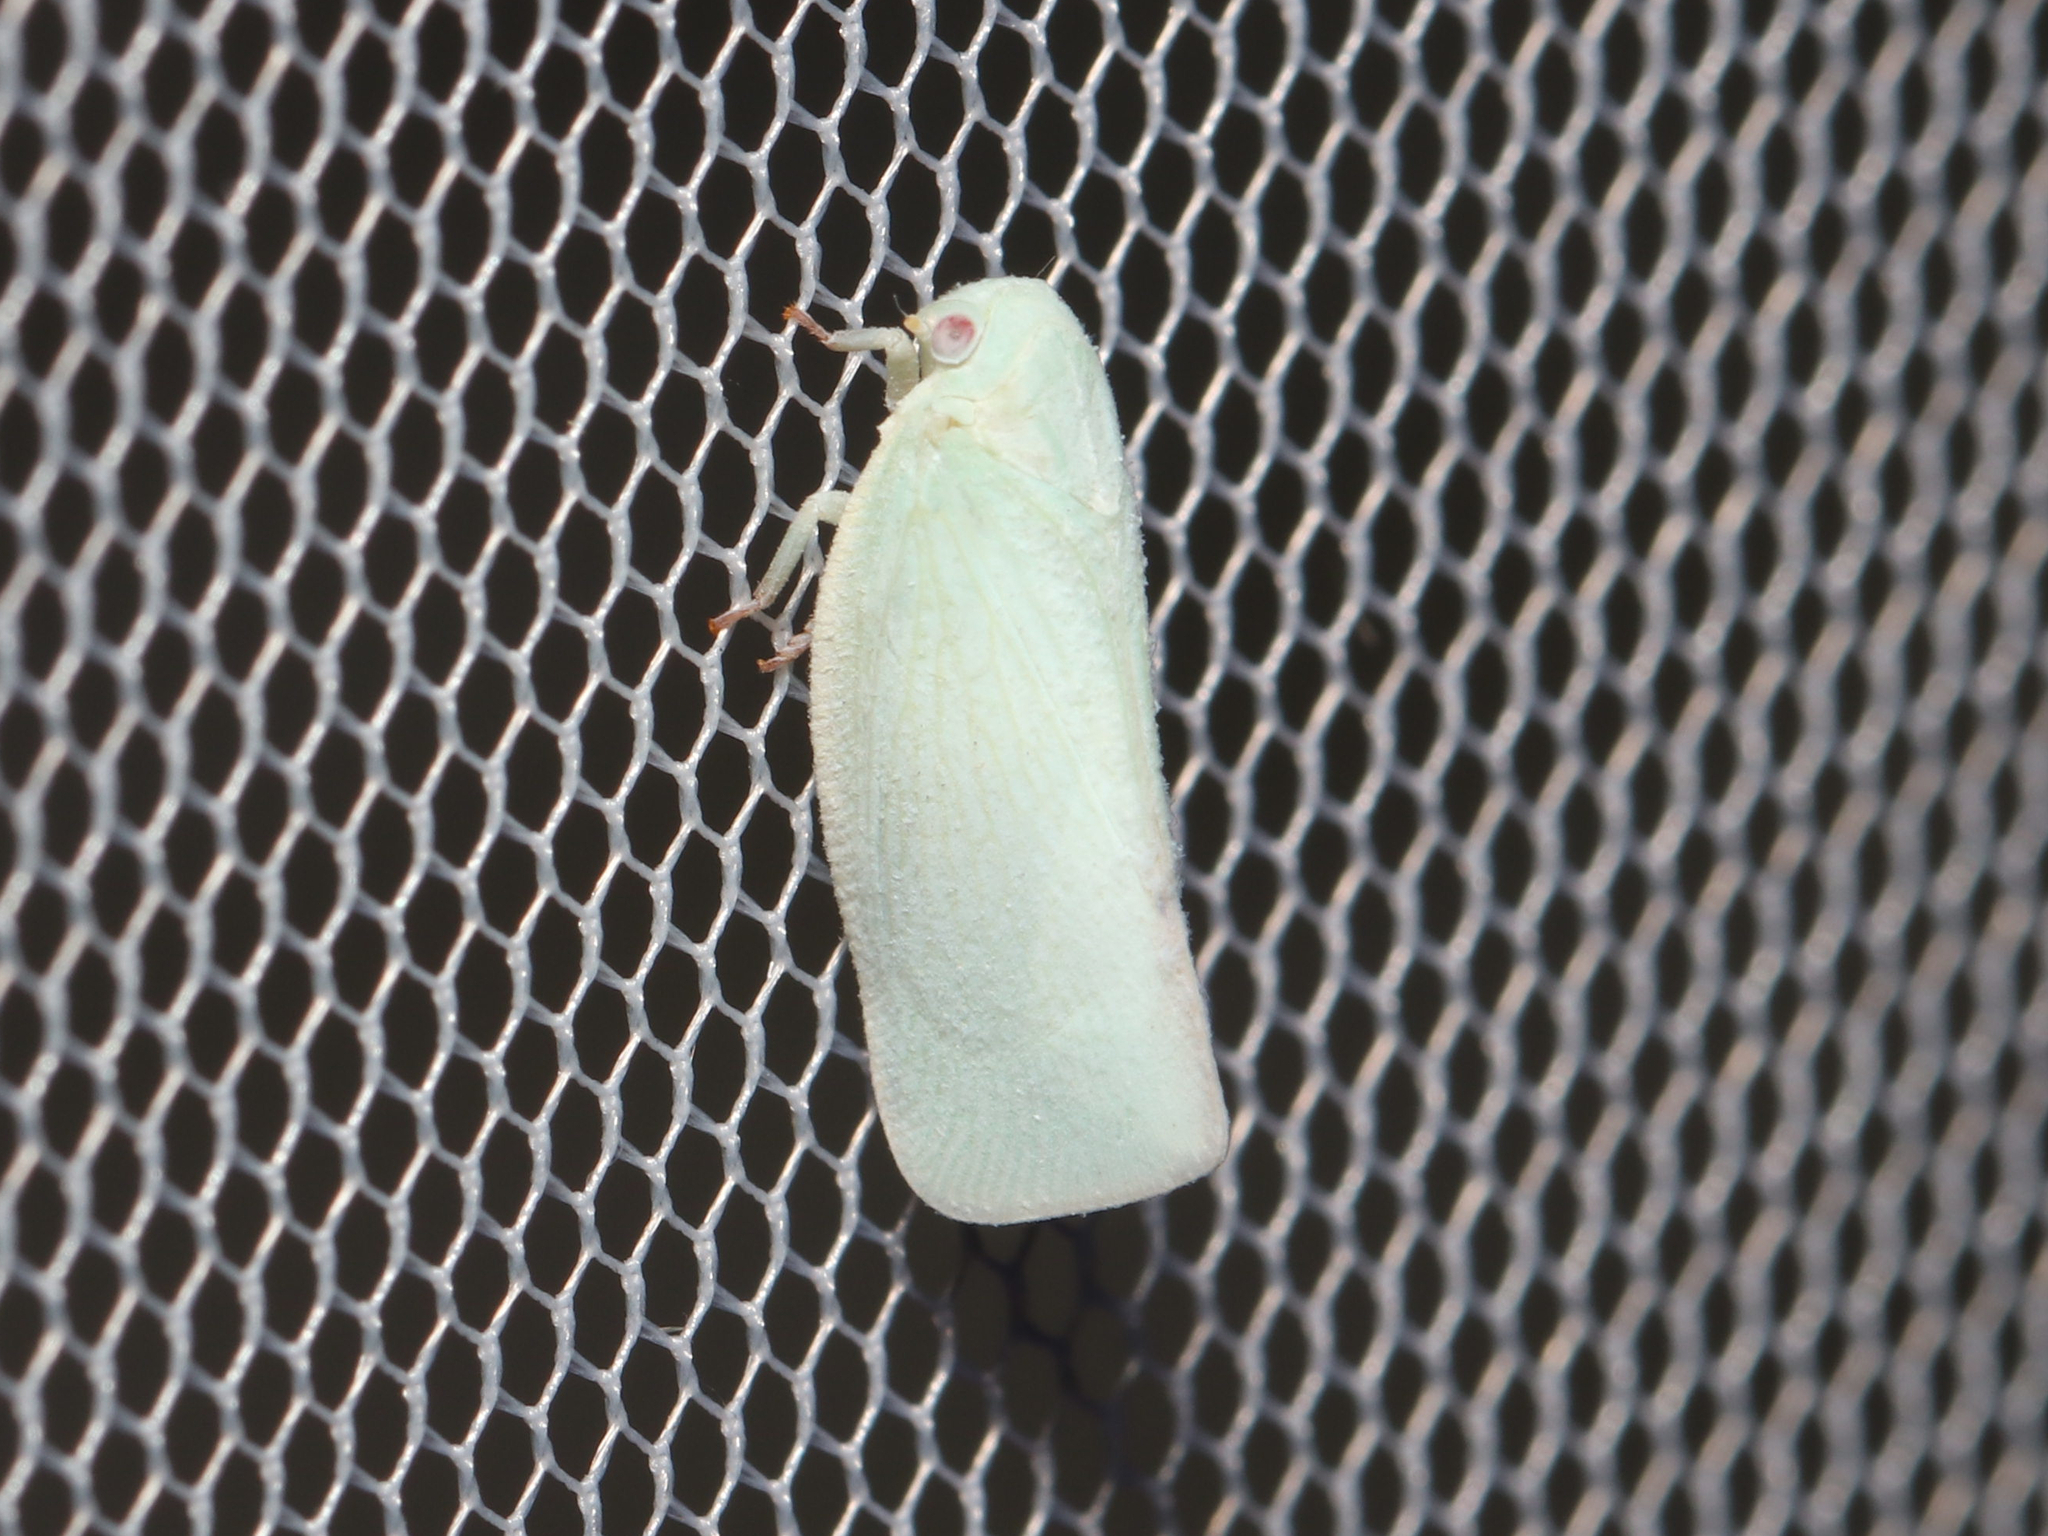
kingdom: Animalia
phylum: Arthropoda
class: Insecta
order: Hemiptera
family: Flatidae
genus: Flatormenis
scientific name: Flatormenis proxima
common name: Northern flatid planthopper
